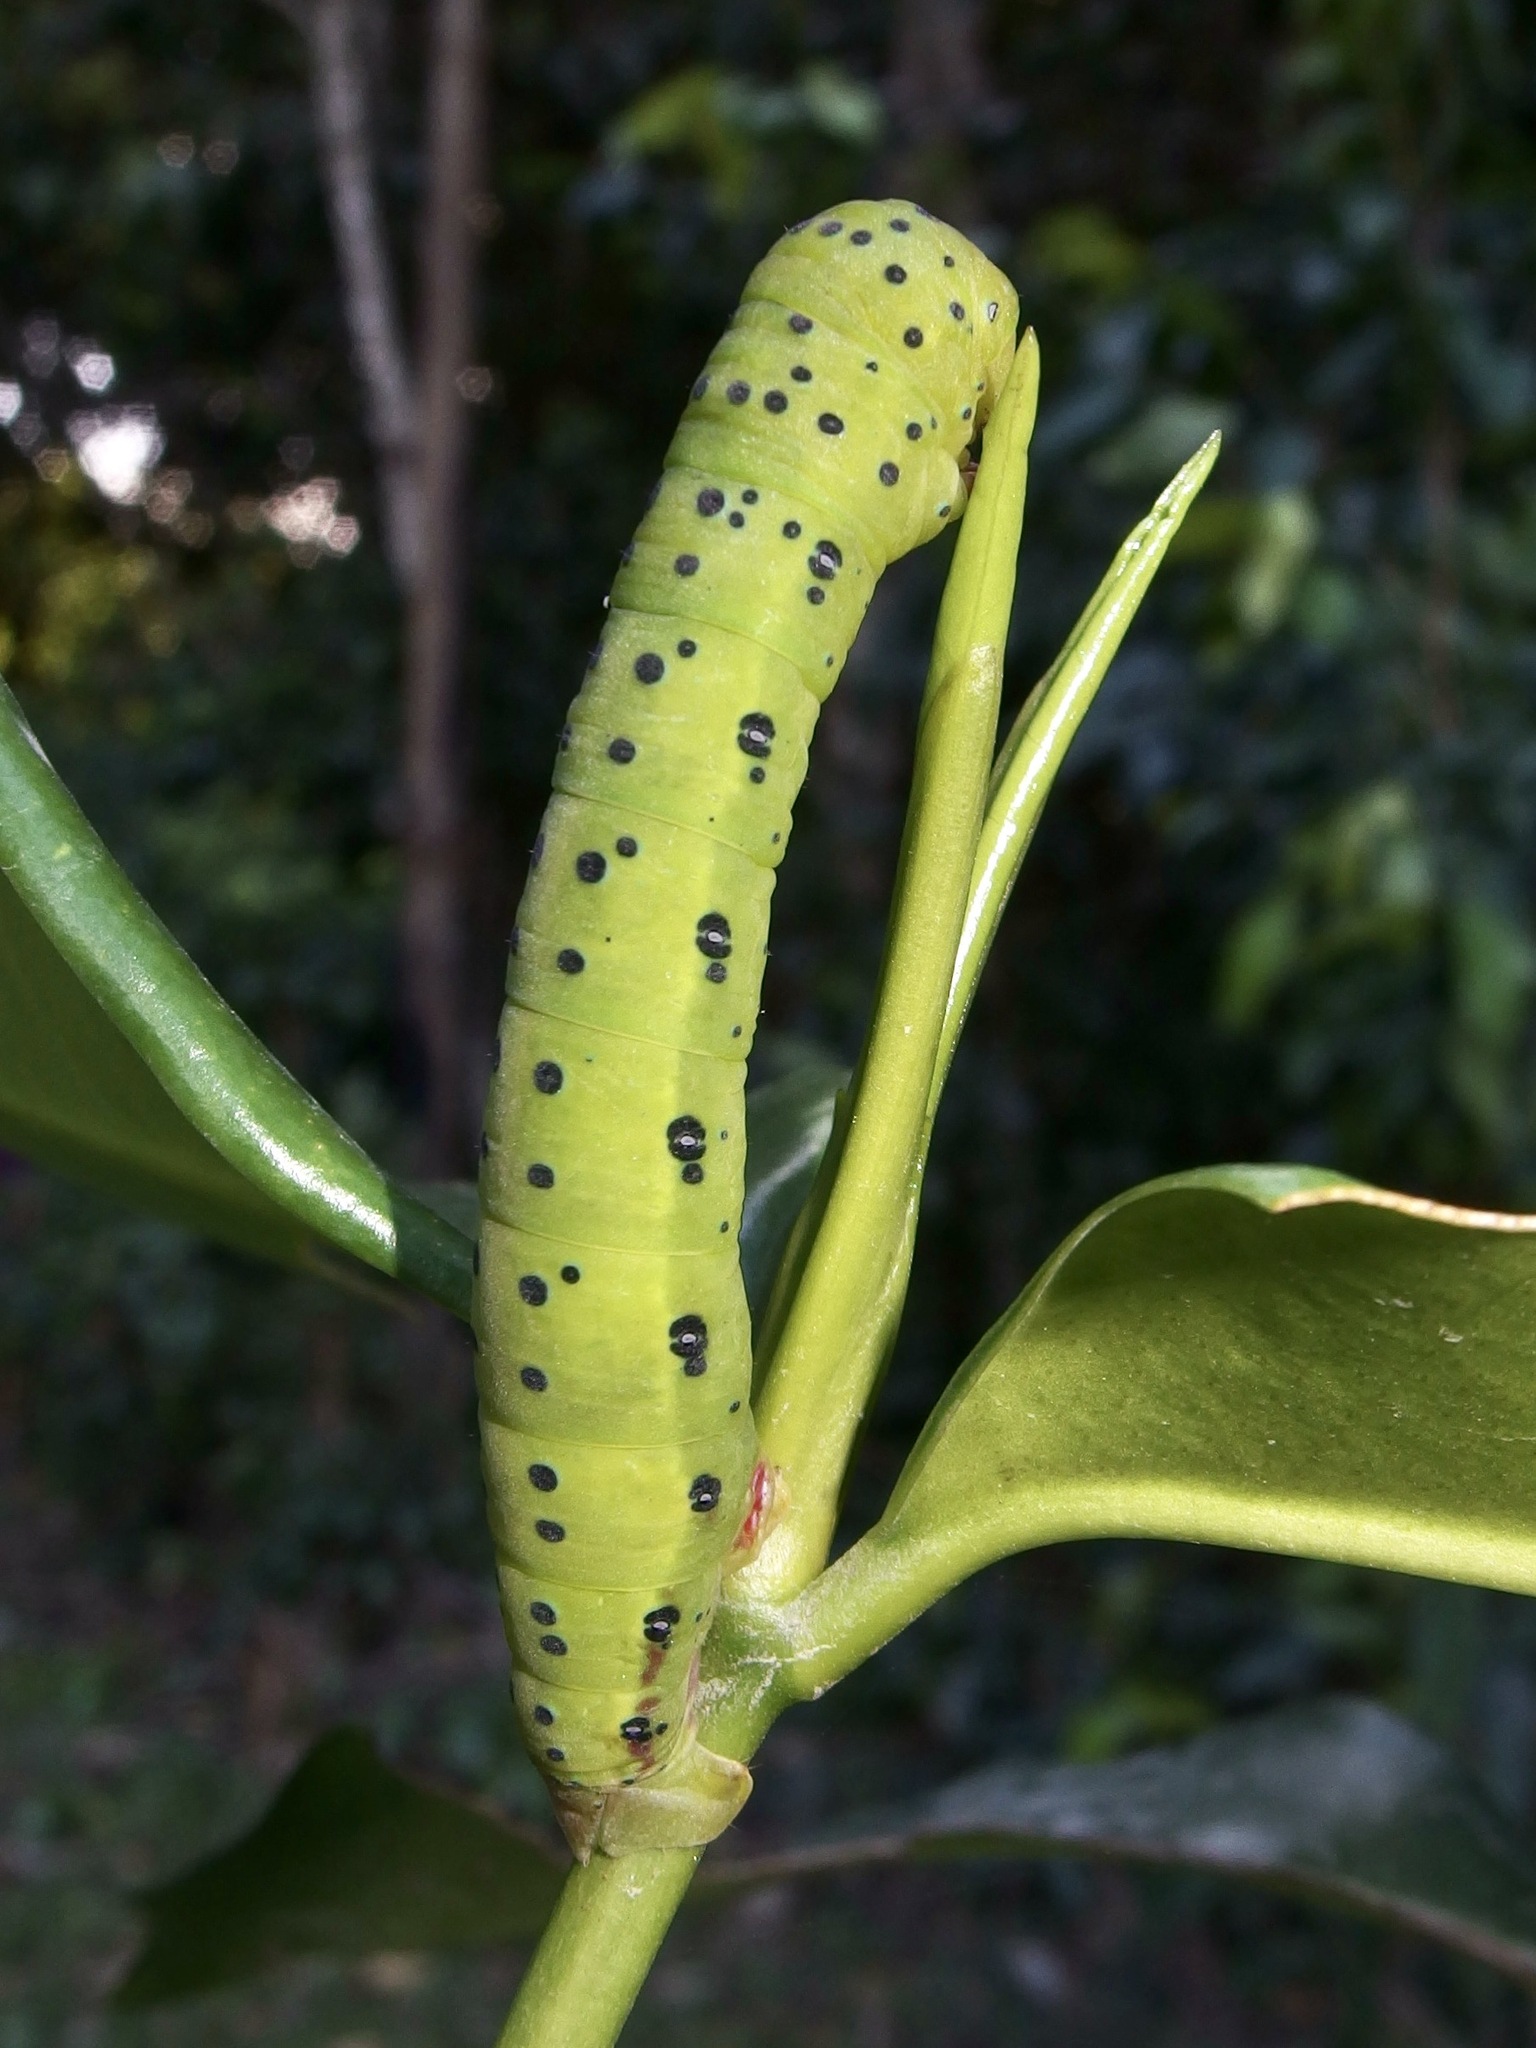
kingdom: Animalia
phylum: Arthropoda
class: Insecta
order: Lepidoptera
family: Geometridae
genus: Dysphania
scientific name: Dysphania numana
